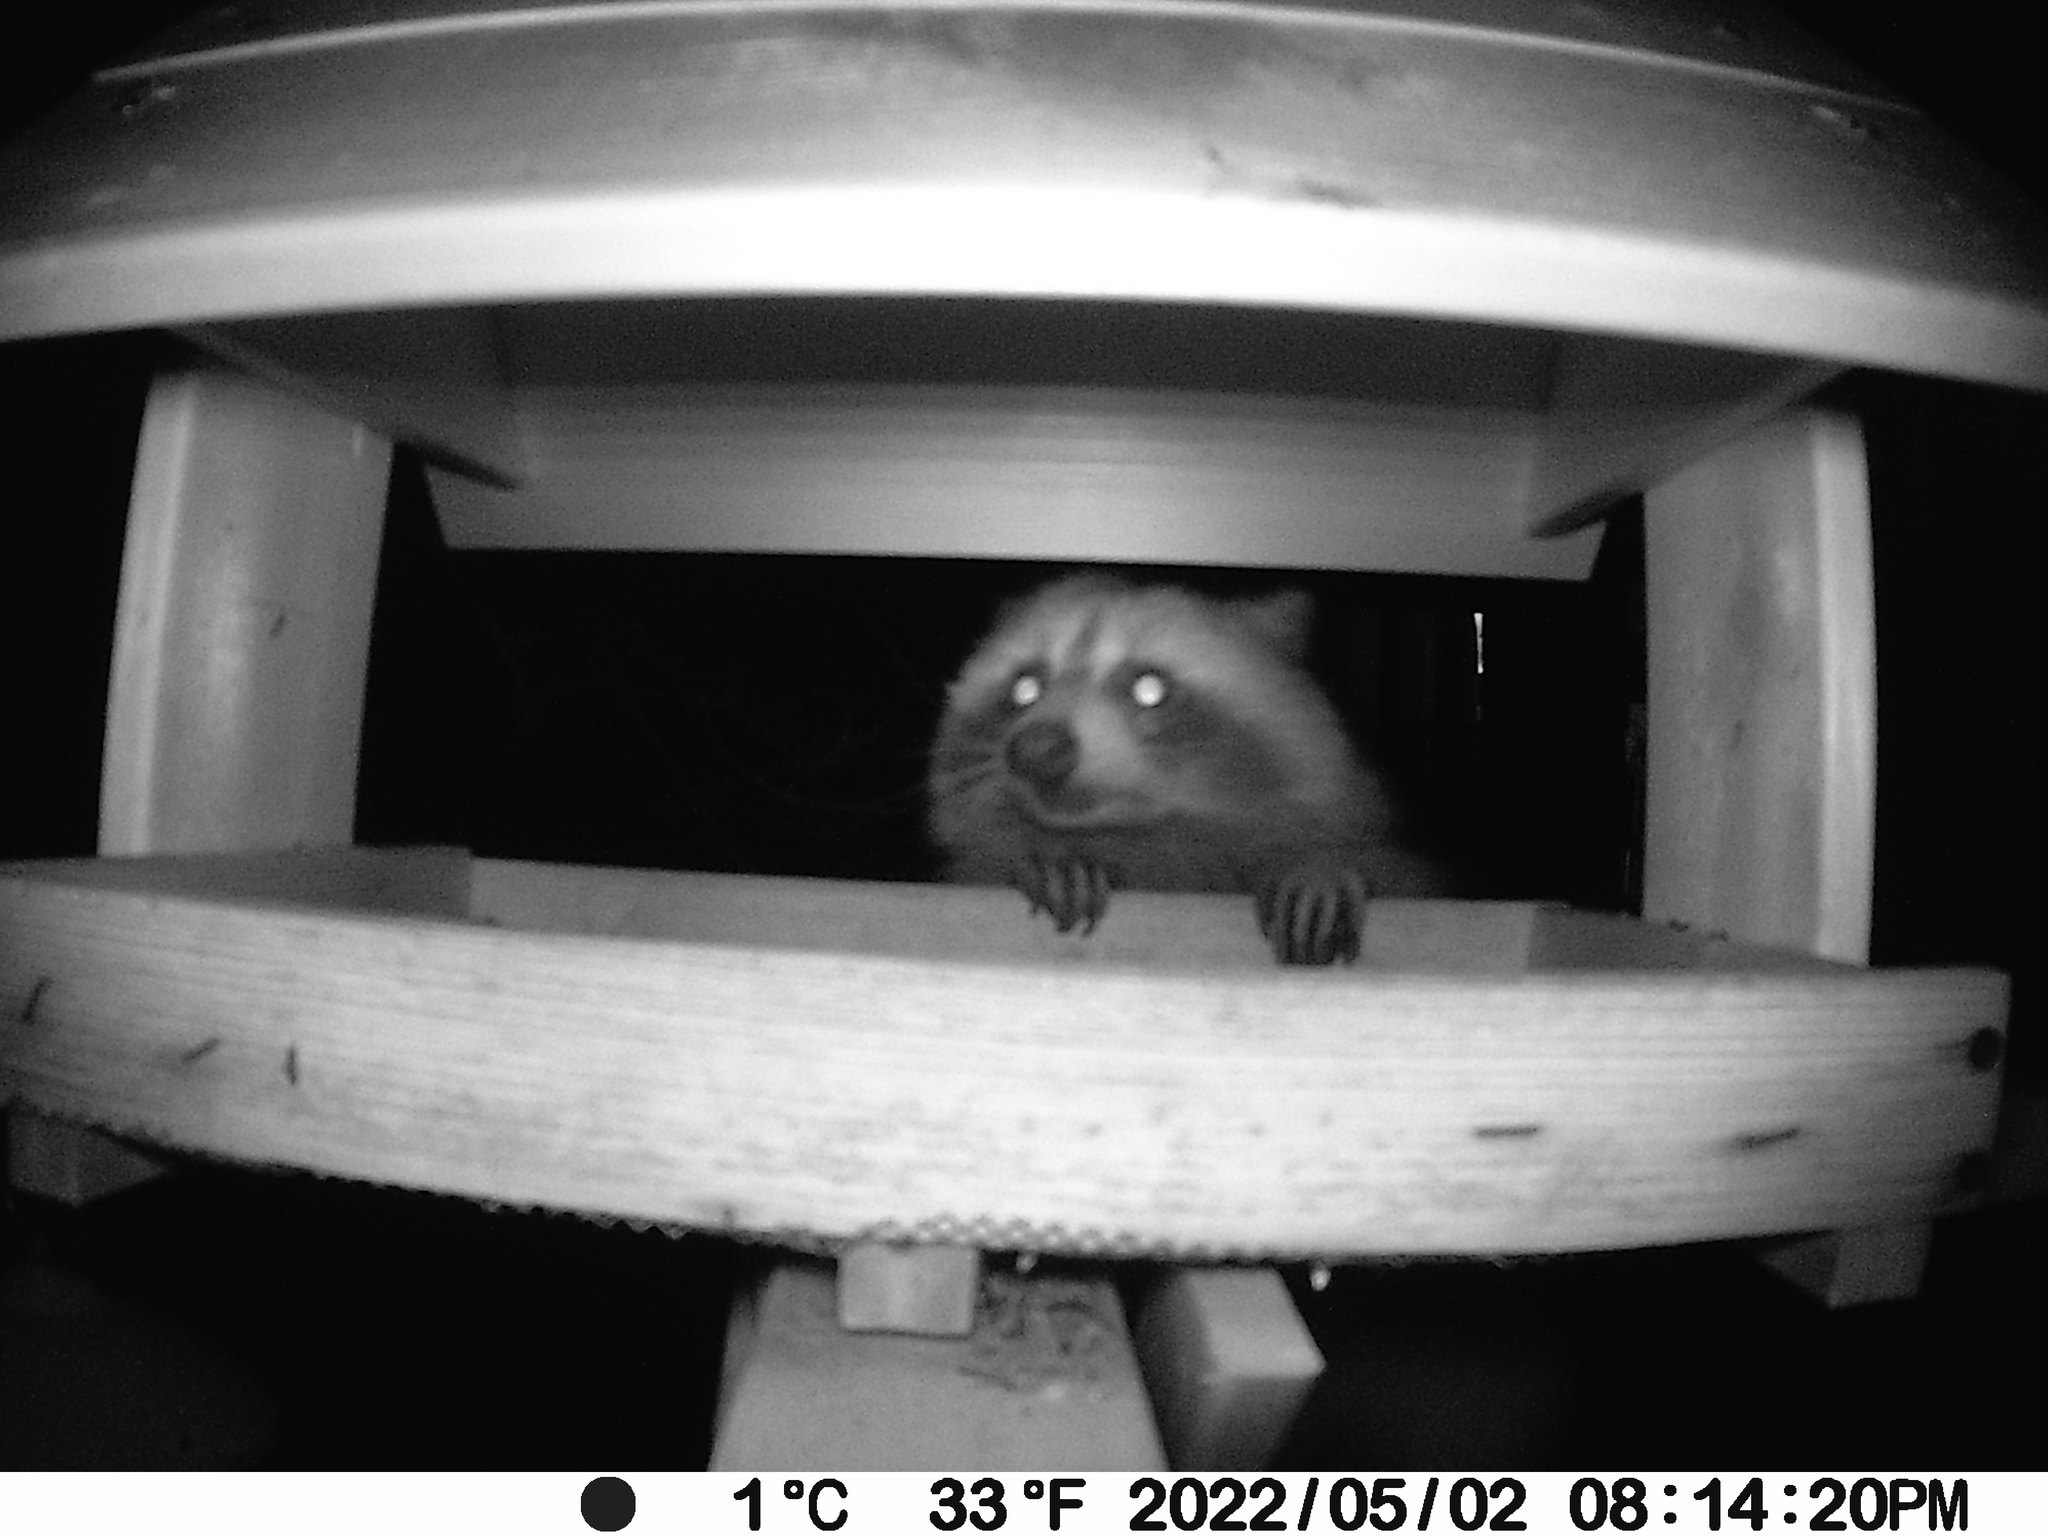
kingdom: Animalia
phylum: Chordata
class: Mammalia
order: Carnivora
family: Procyonidae
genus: Procyon
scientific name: Procyon lotor
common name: Raccoon
